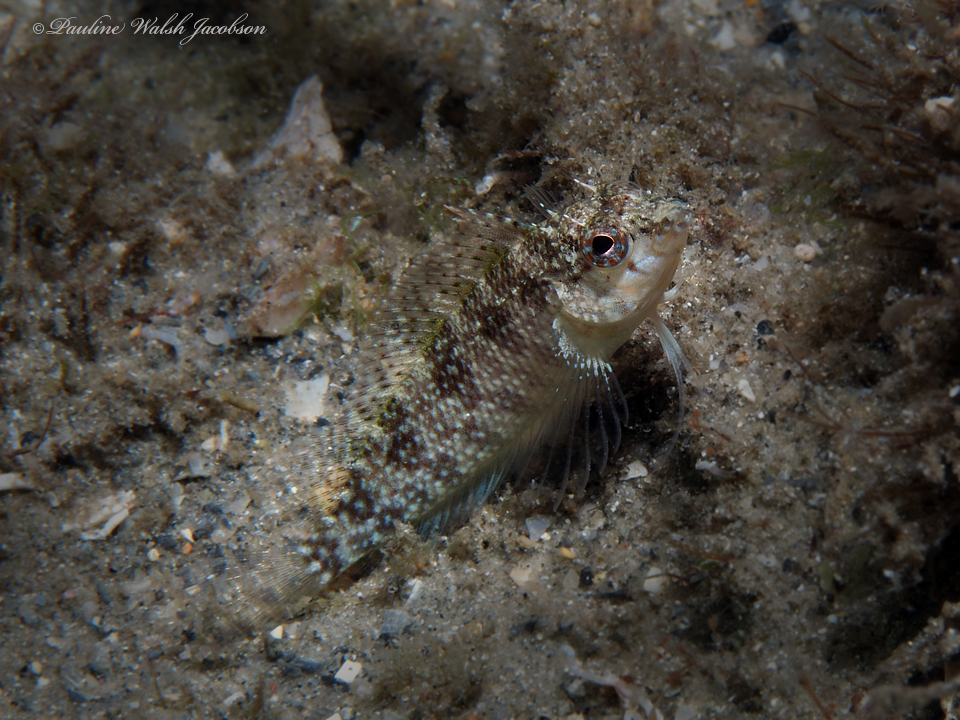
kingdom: Animalia
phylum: Chordata
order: Perciformes
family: Labrisomidae
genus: Malacoctenus
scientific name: Malacoctenus macropus
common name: Rosy blenny
